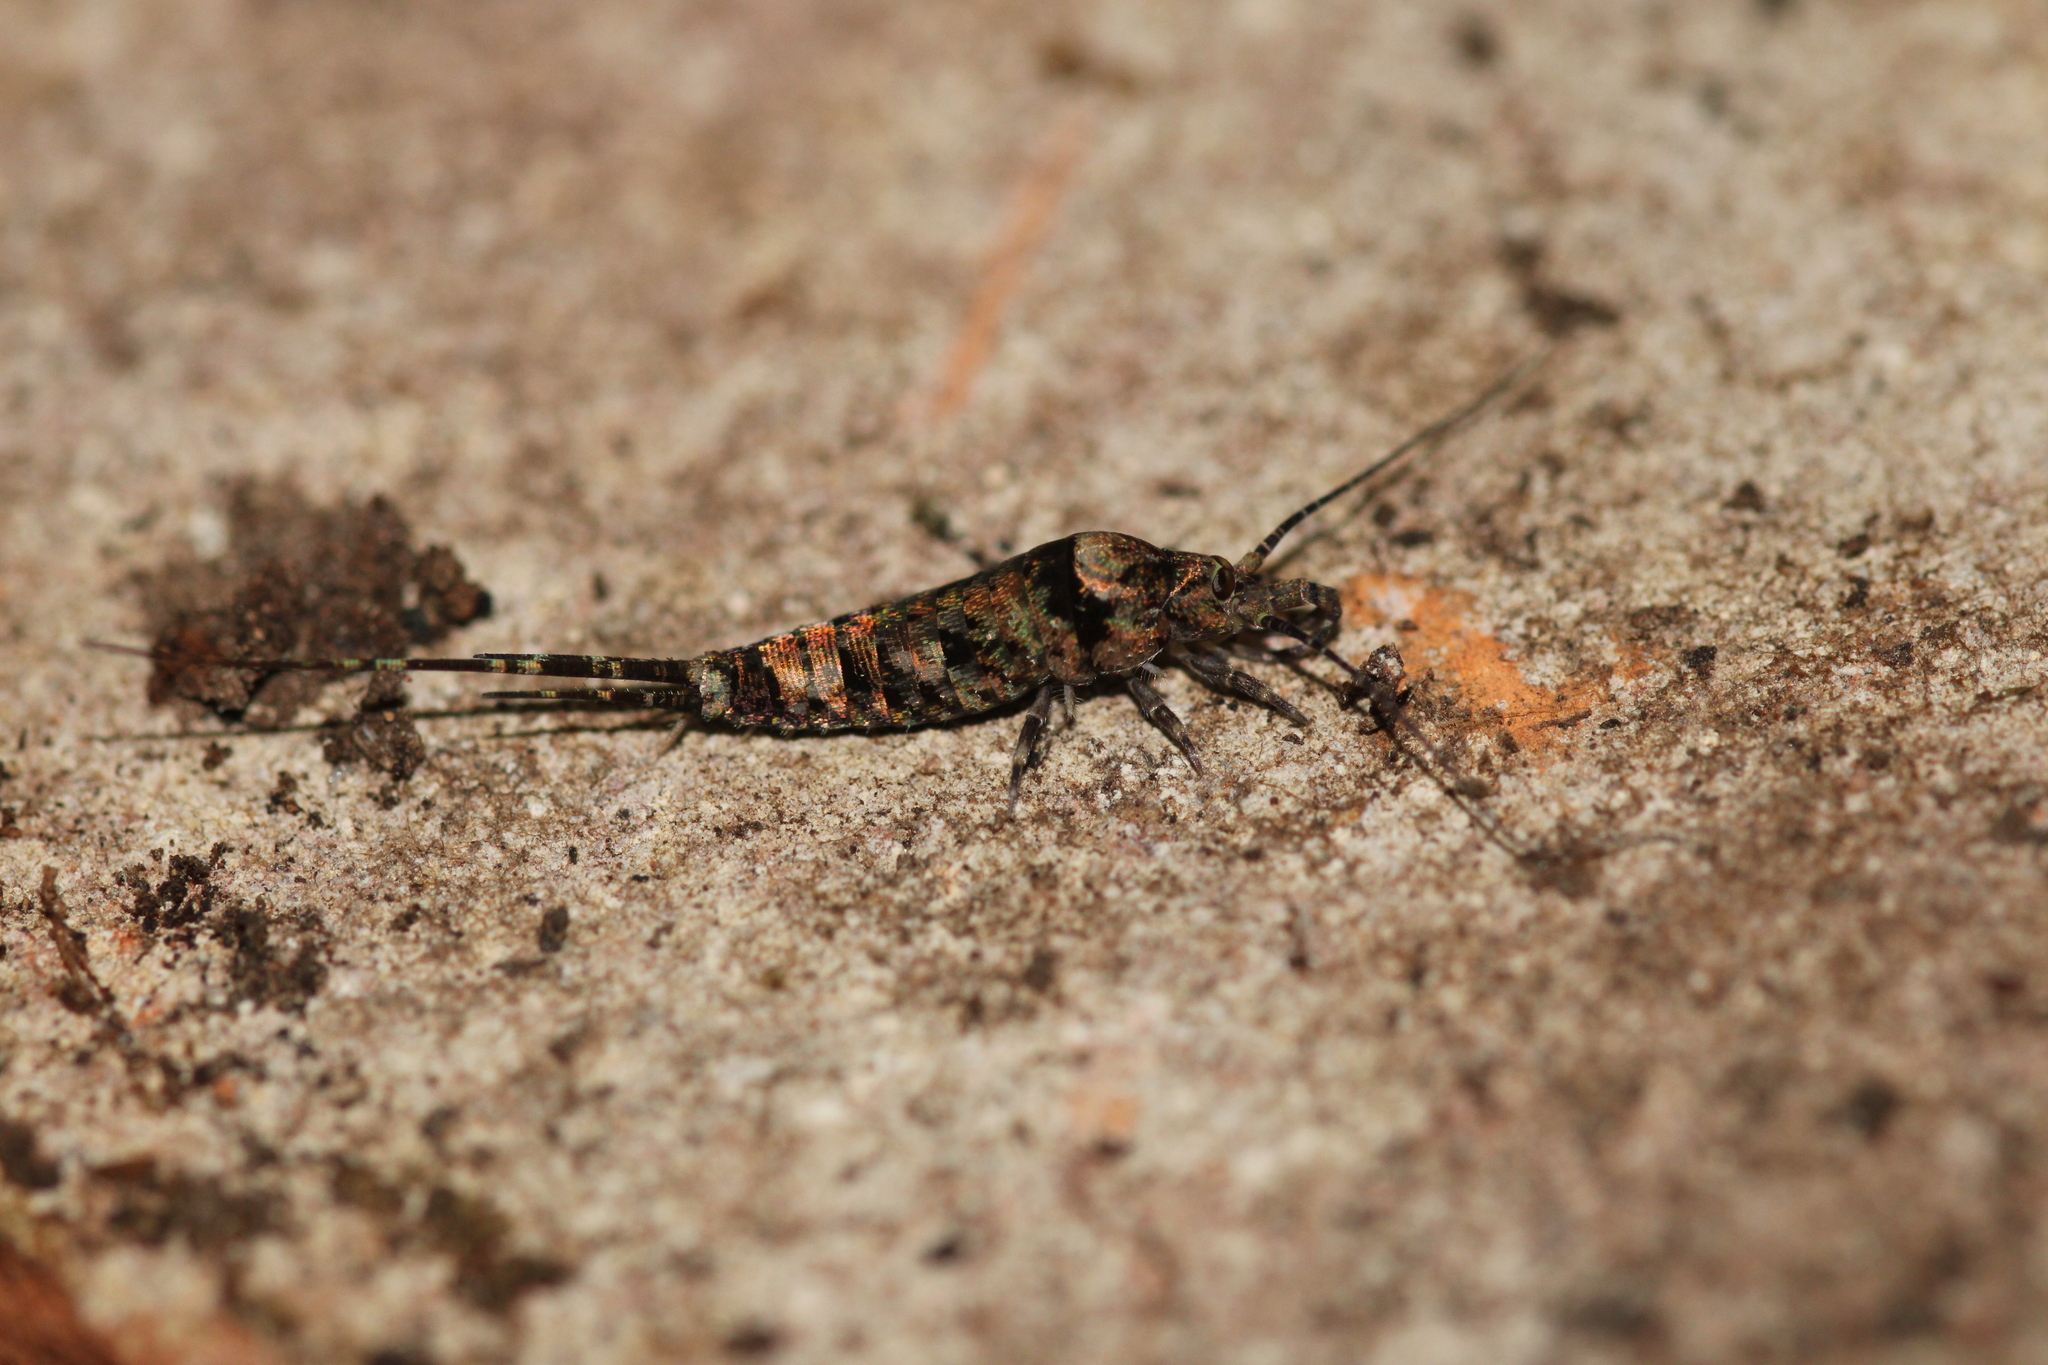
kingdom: Animalia
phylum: Arthropoda
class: Insecta
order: Archaeognatha
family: Machilidae
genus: Trigoniophthalmus
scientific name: Trigoniophthalmus alternatus
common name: Jumping bristletail
